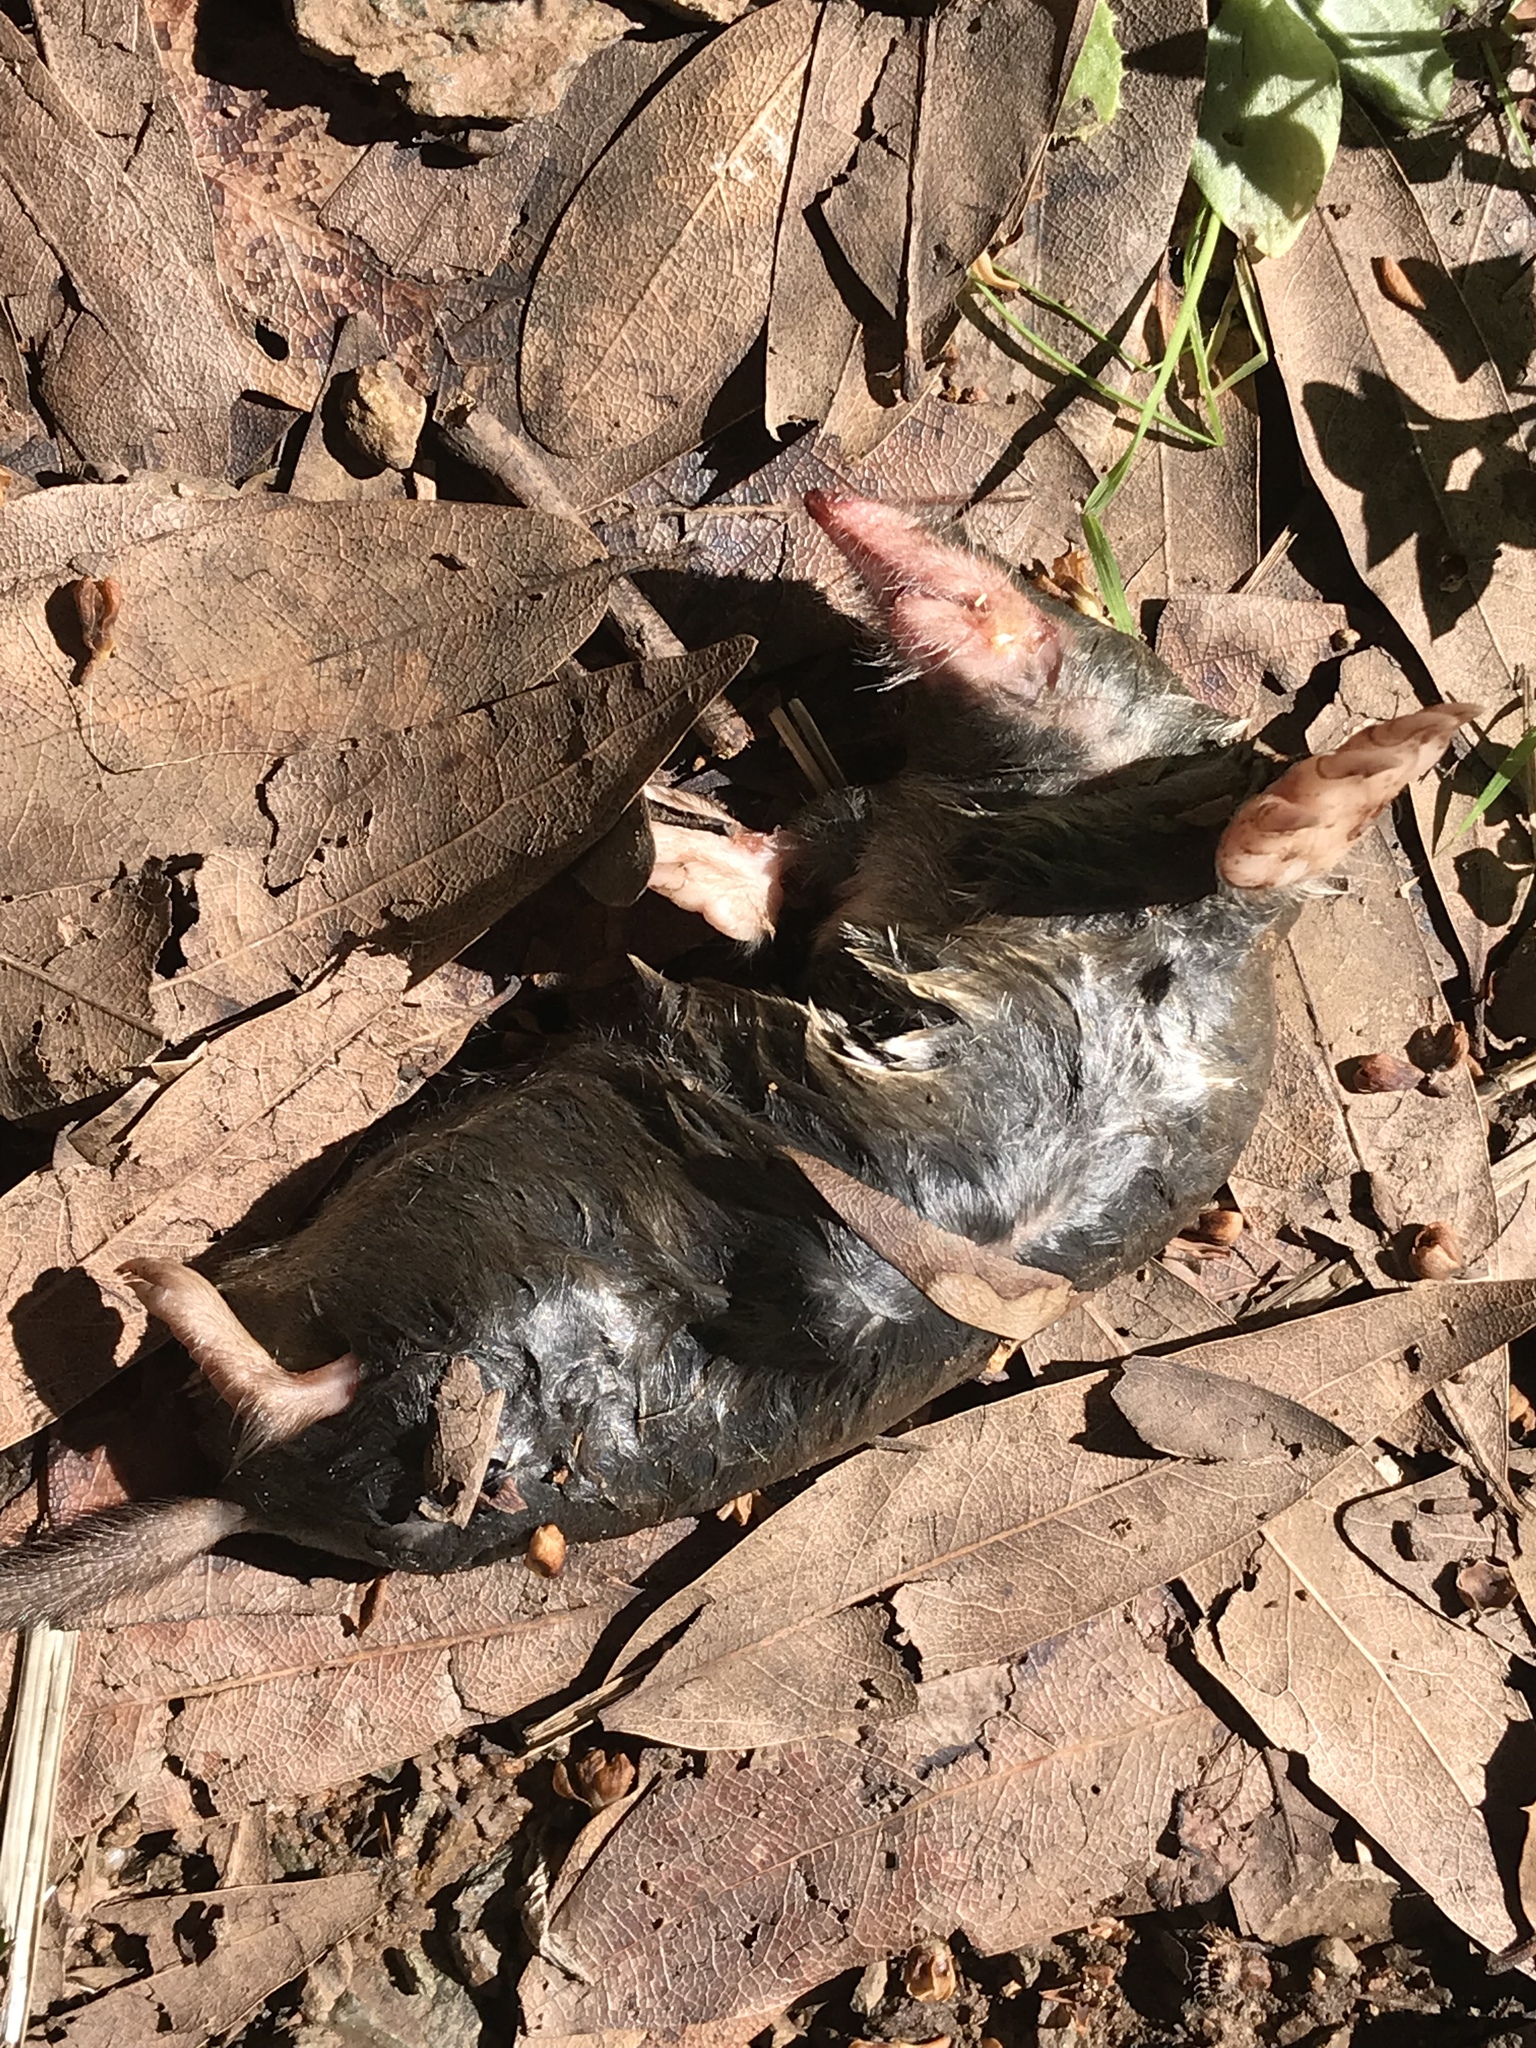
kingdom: Animalia
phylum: Chordata
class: Mammalia
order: Soricomorpha
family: Talpidae
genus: Scapanus
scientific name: Scapanus latimanus
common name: Broad-footed mole
